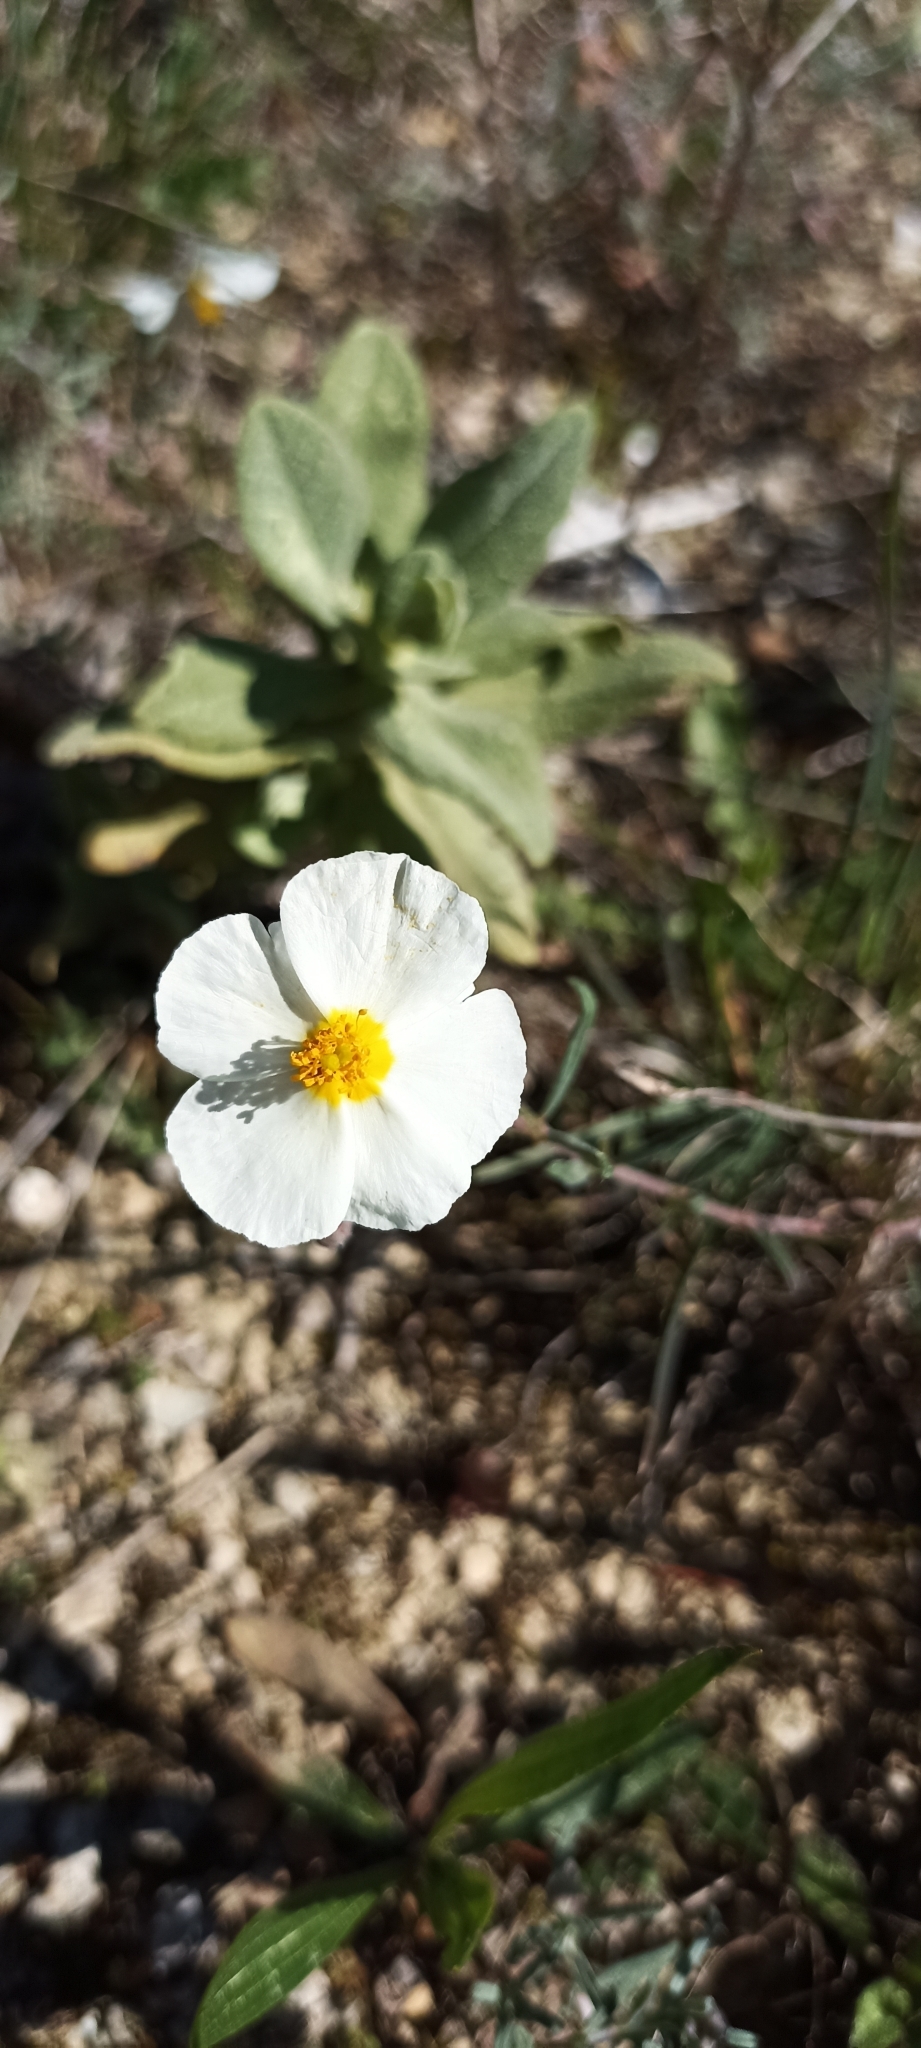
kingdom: Plantae
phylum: Tracheophyta
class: Magnoliopsida
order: Malvales
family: Cistaceae
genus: Helianthemum
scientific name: Helianthemum apenninum
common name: White rock-rose
